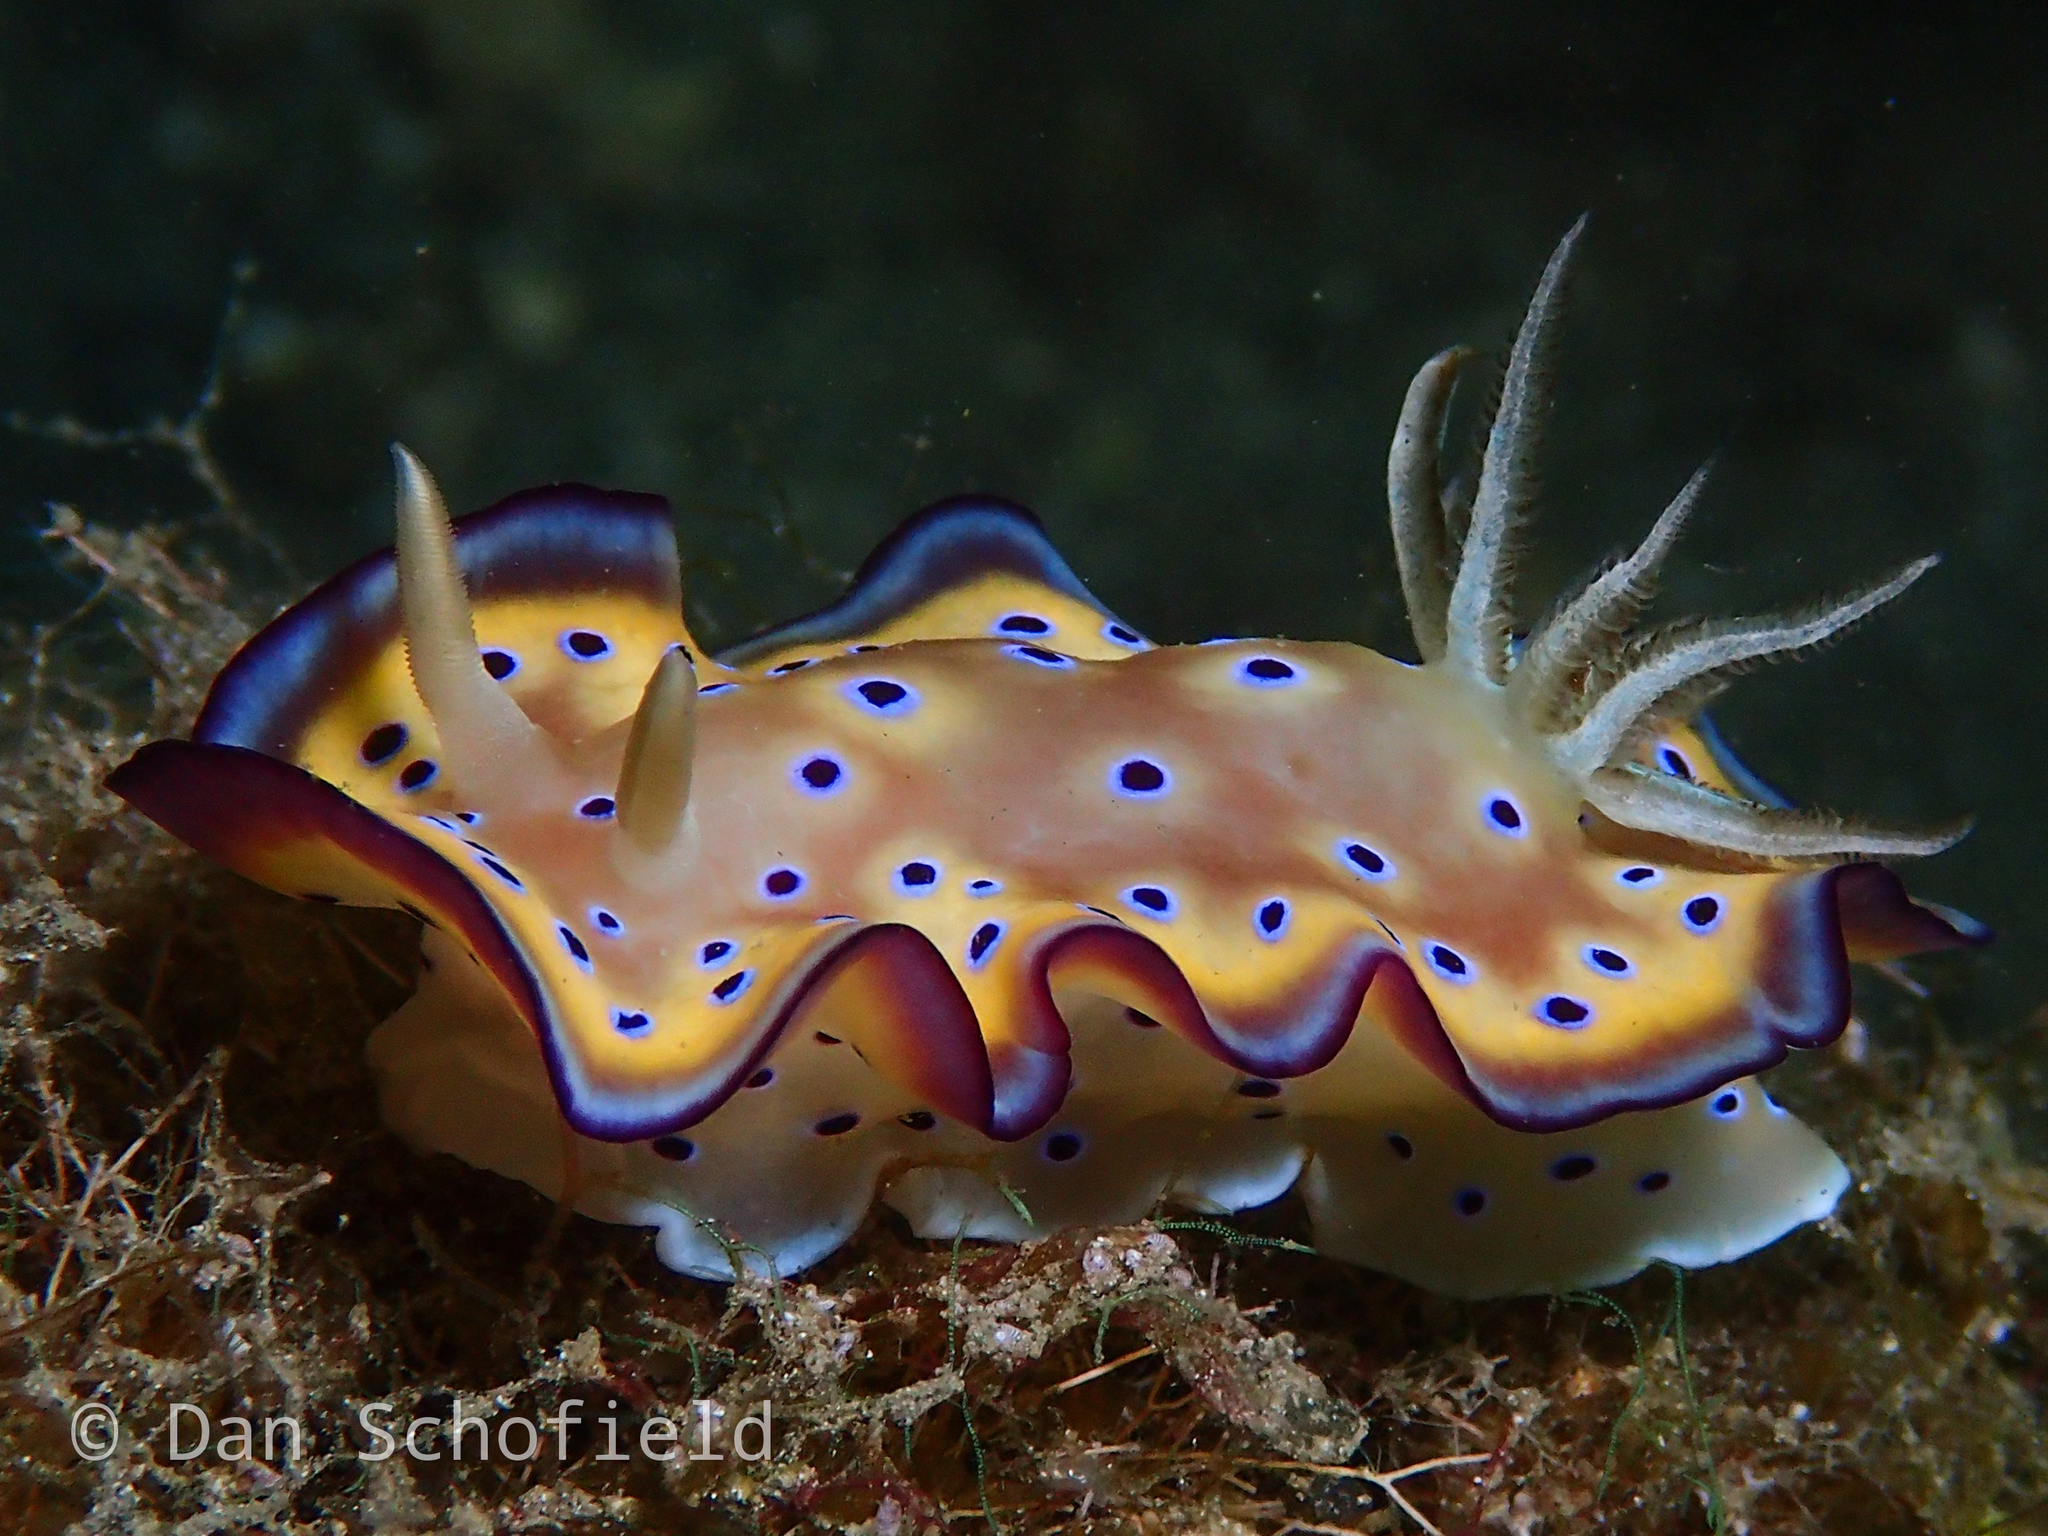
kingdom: Animalia
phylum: Mollusca
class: Gastropoda
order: Nudibranchia
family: Chromodorididae
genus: Goniobranchus
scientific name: Goniobranchus kuniei
